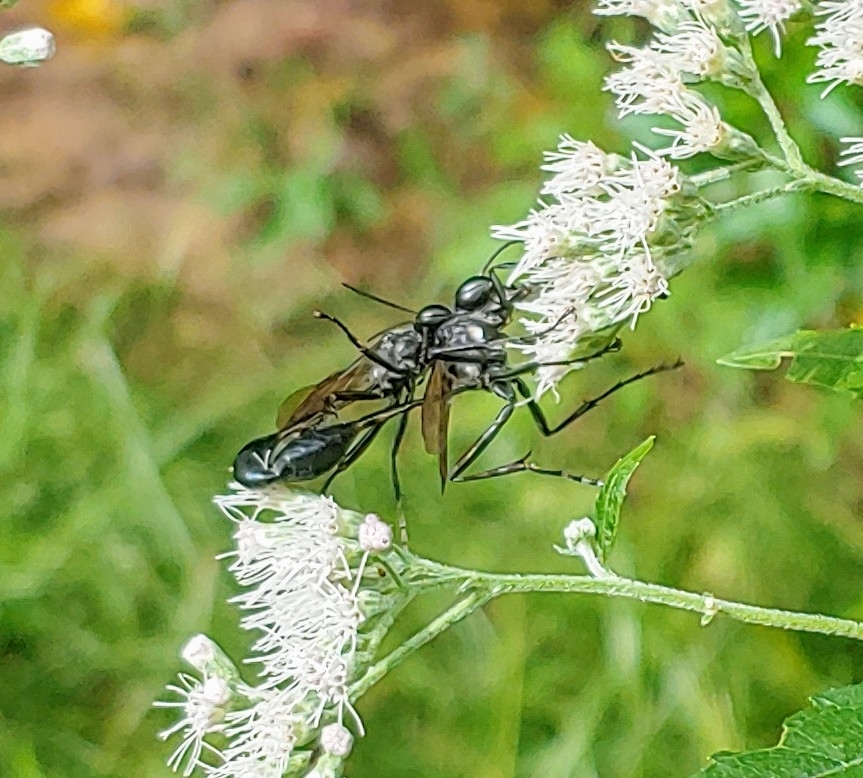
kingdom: Animalia
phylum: Arthropoda
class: Insecta
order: Hymenoptera
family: Sphecidae
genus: Eremnophila
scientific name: Eremnophila aureonotata
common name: Gold-marked thread-waisted wasp
